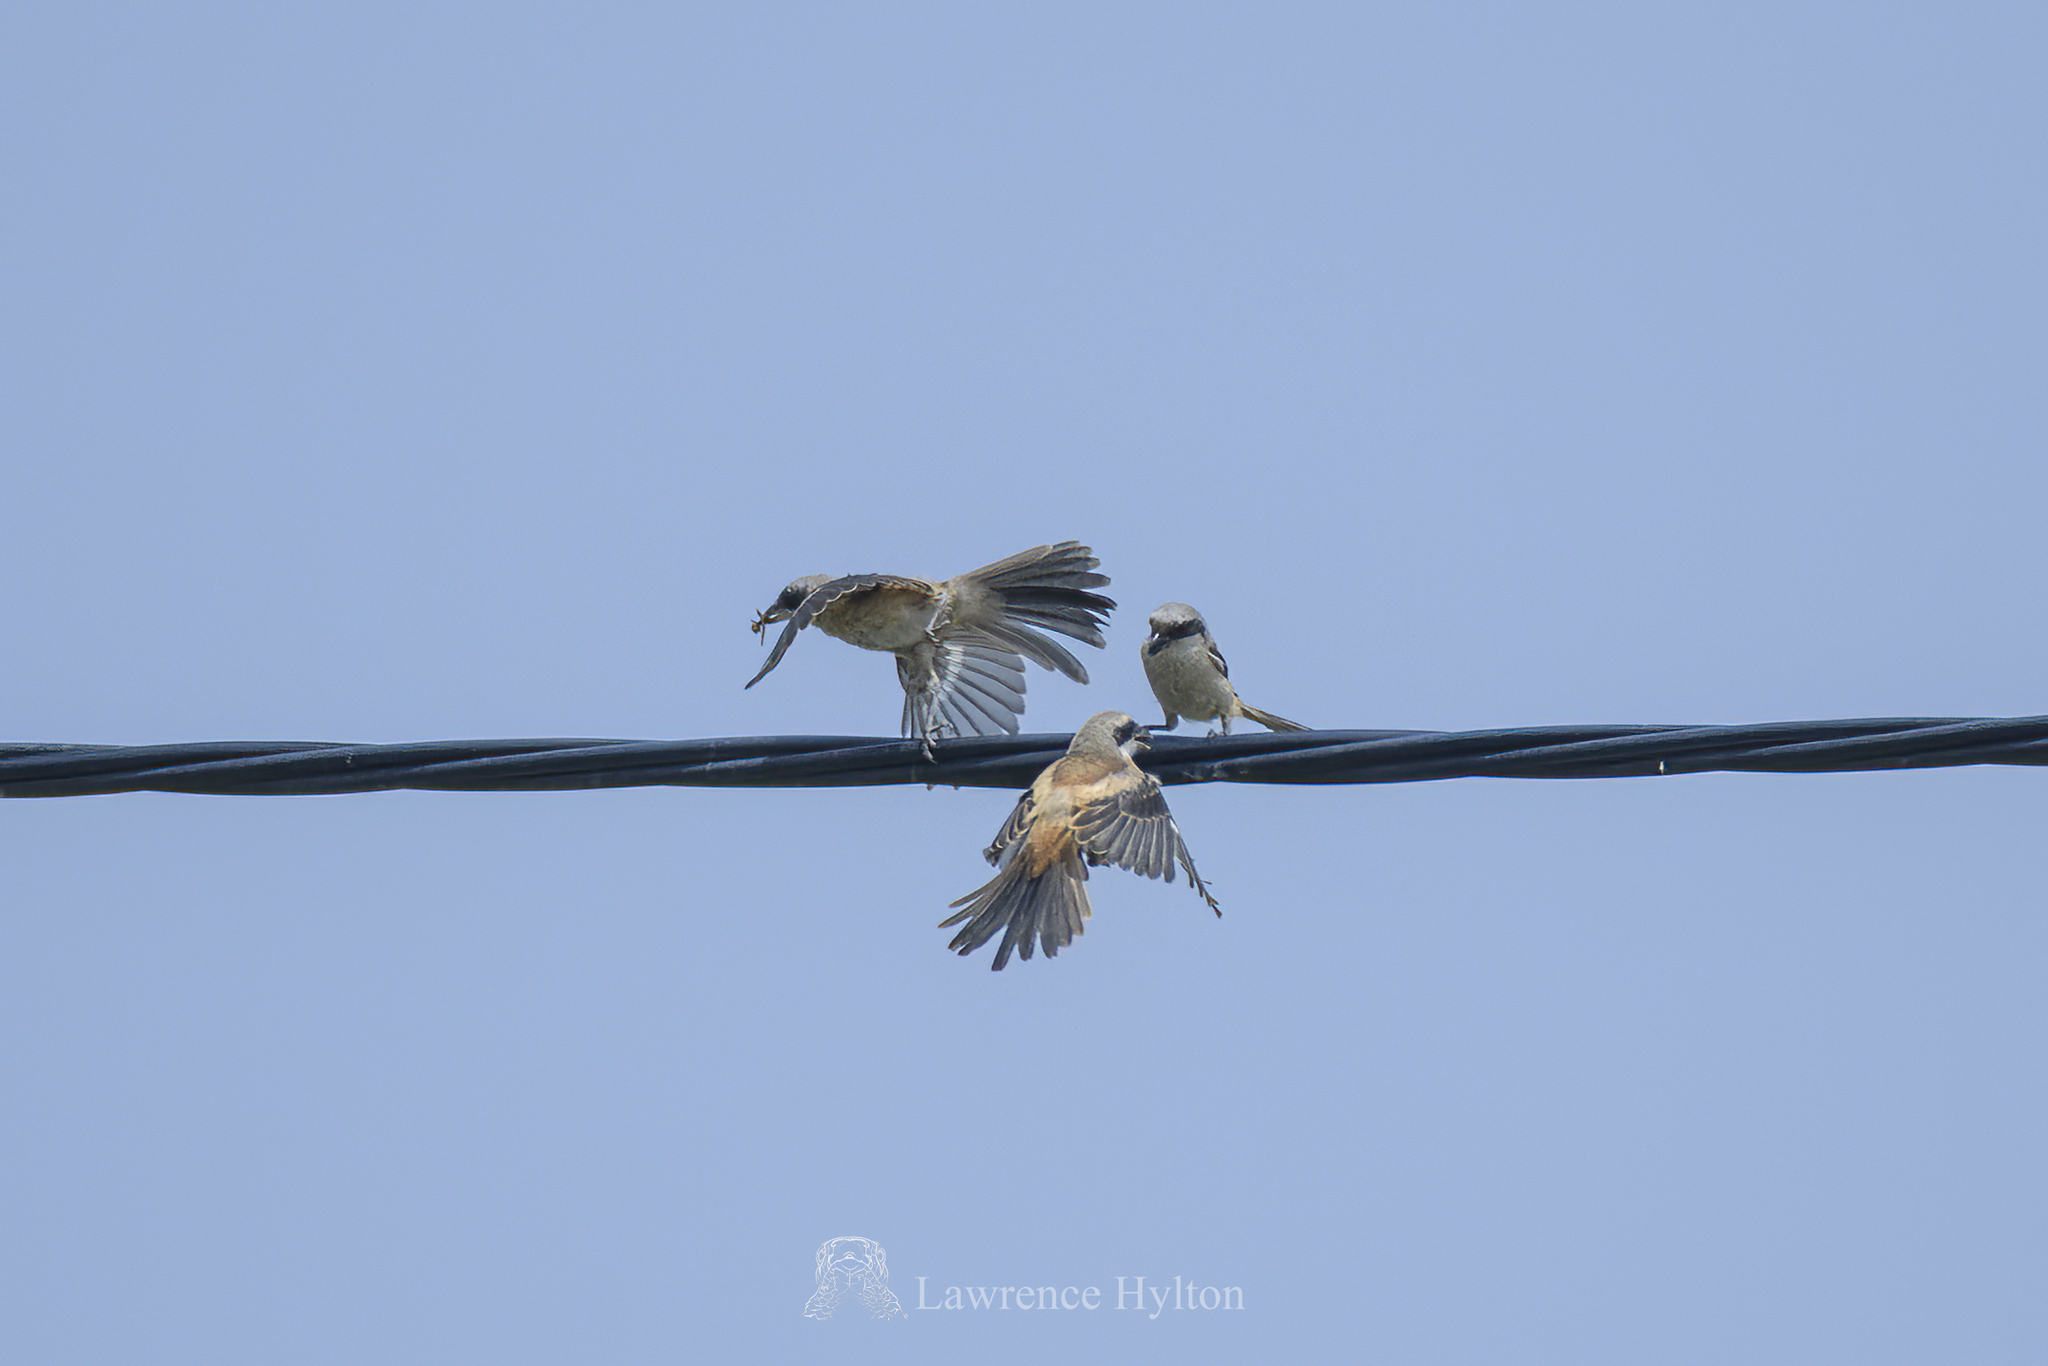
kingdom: Animalia
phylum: Chordata
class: Aves
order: Passeriformes
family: Laniidae
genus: Lanius
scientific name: Lanius schach
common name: Long-tailed shrike
